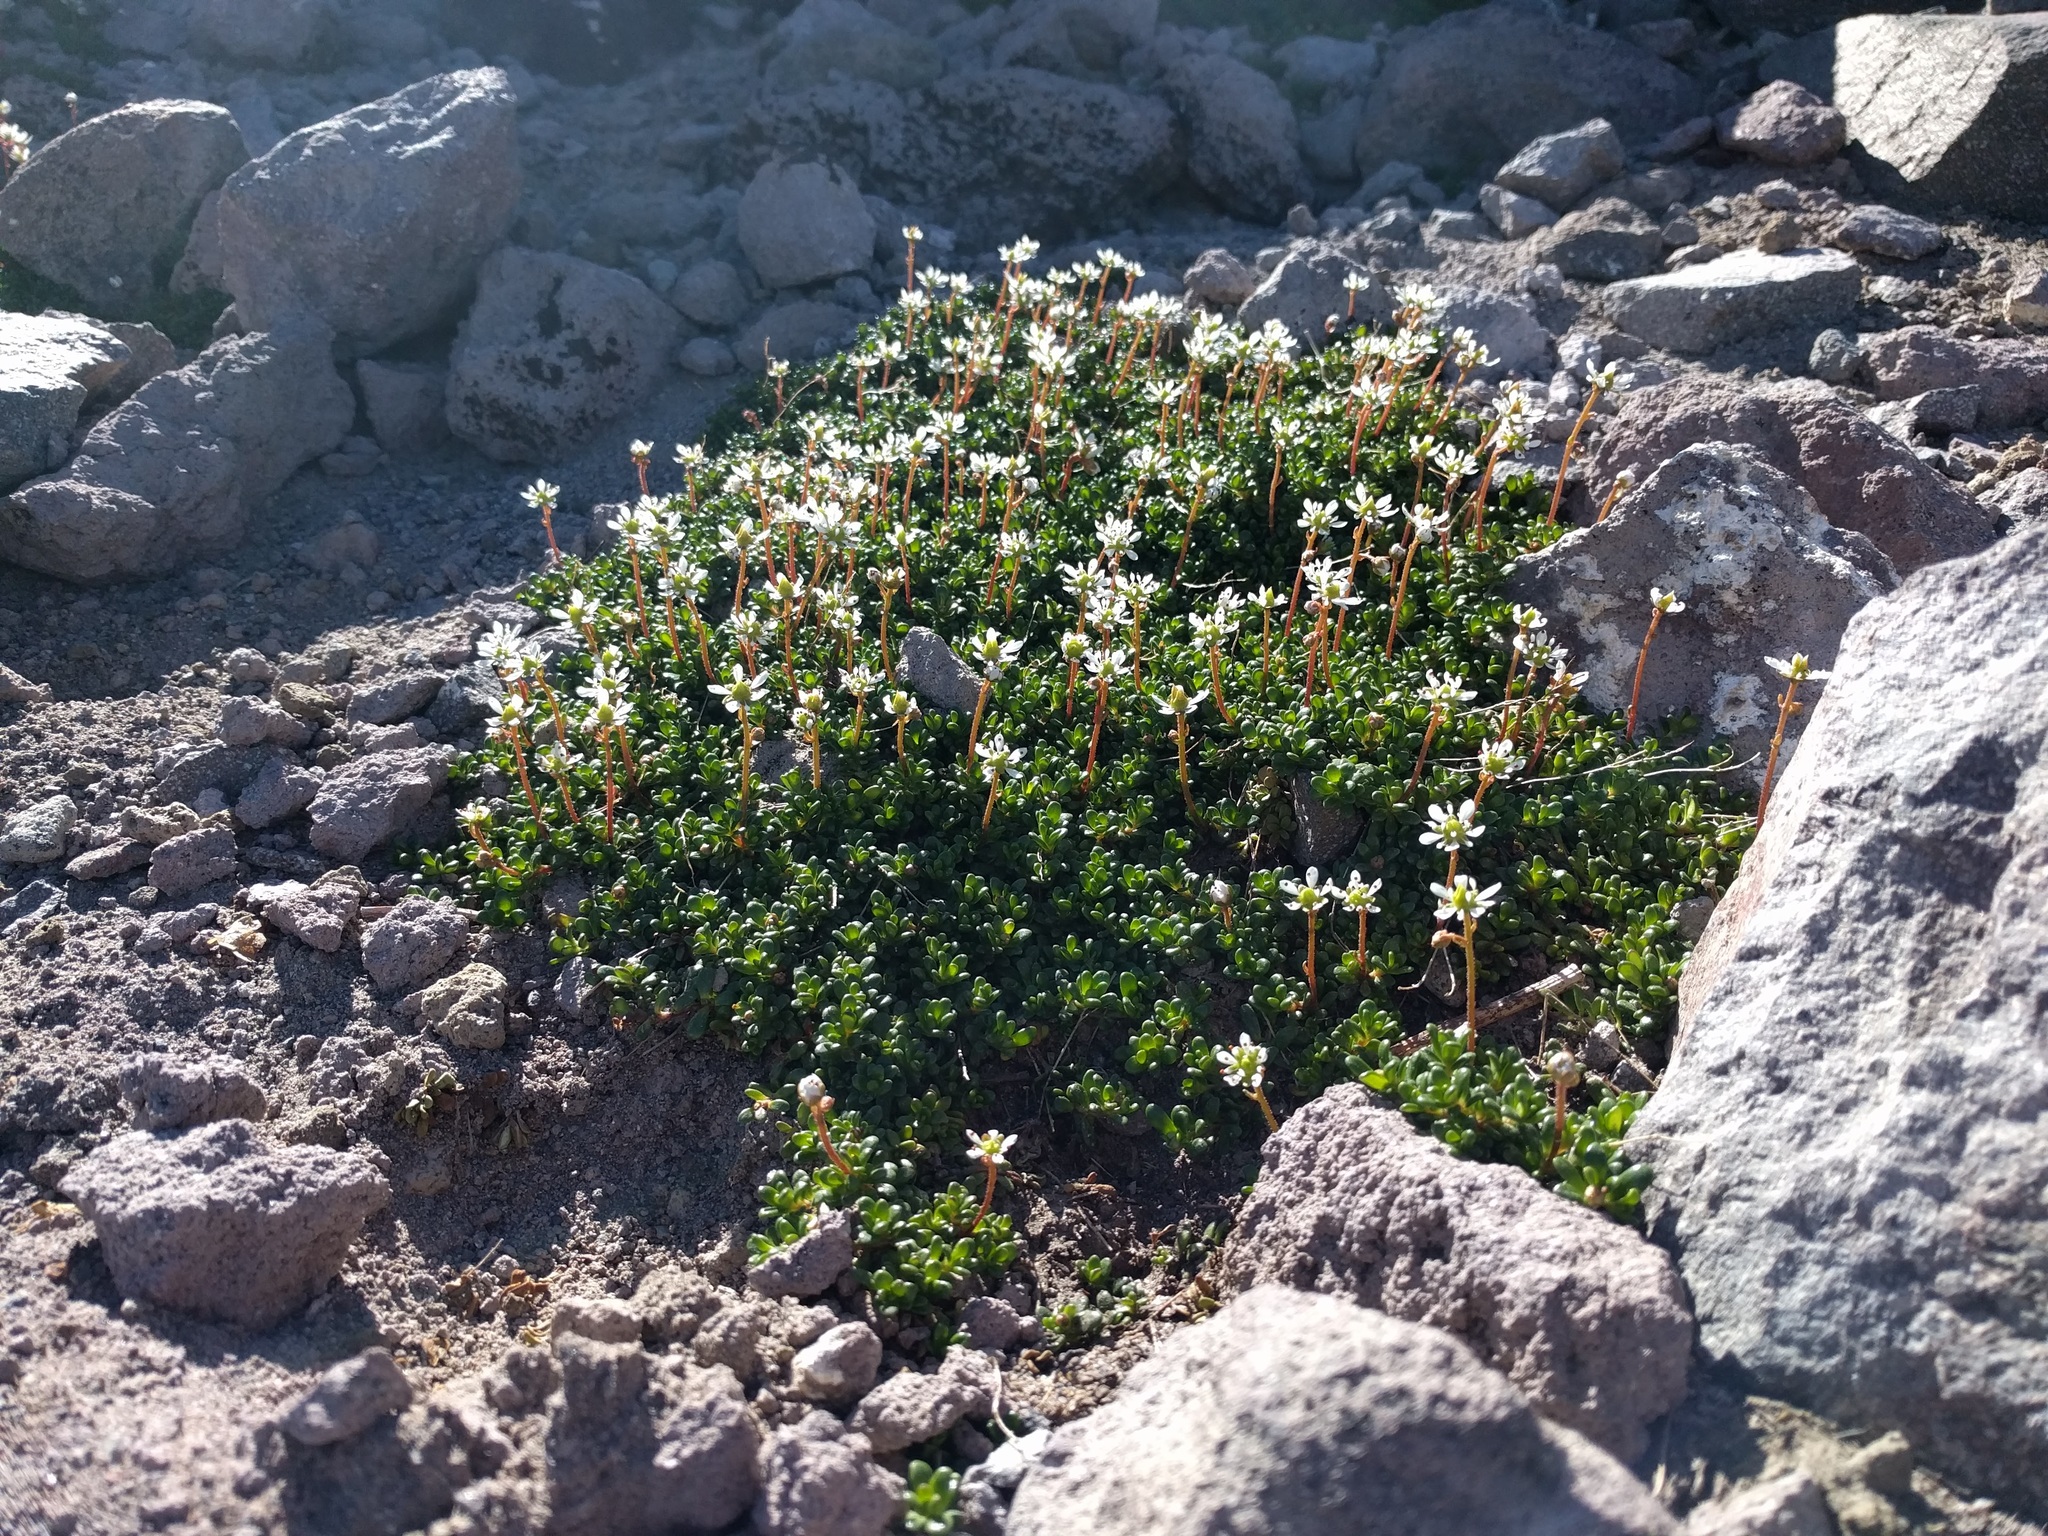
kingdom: Plantae
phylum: Tracheophyta
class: Magnoliopsida
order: Saxifragales
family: Saxifragaceae
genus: Micranthes
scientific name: Micranthes tolmiei
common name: Tolmie's saxifrage
